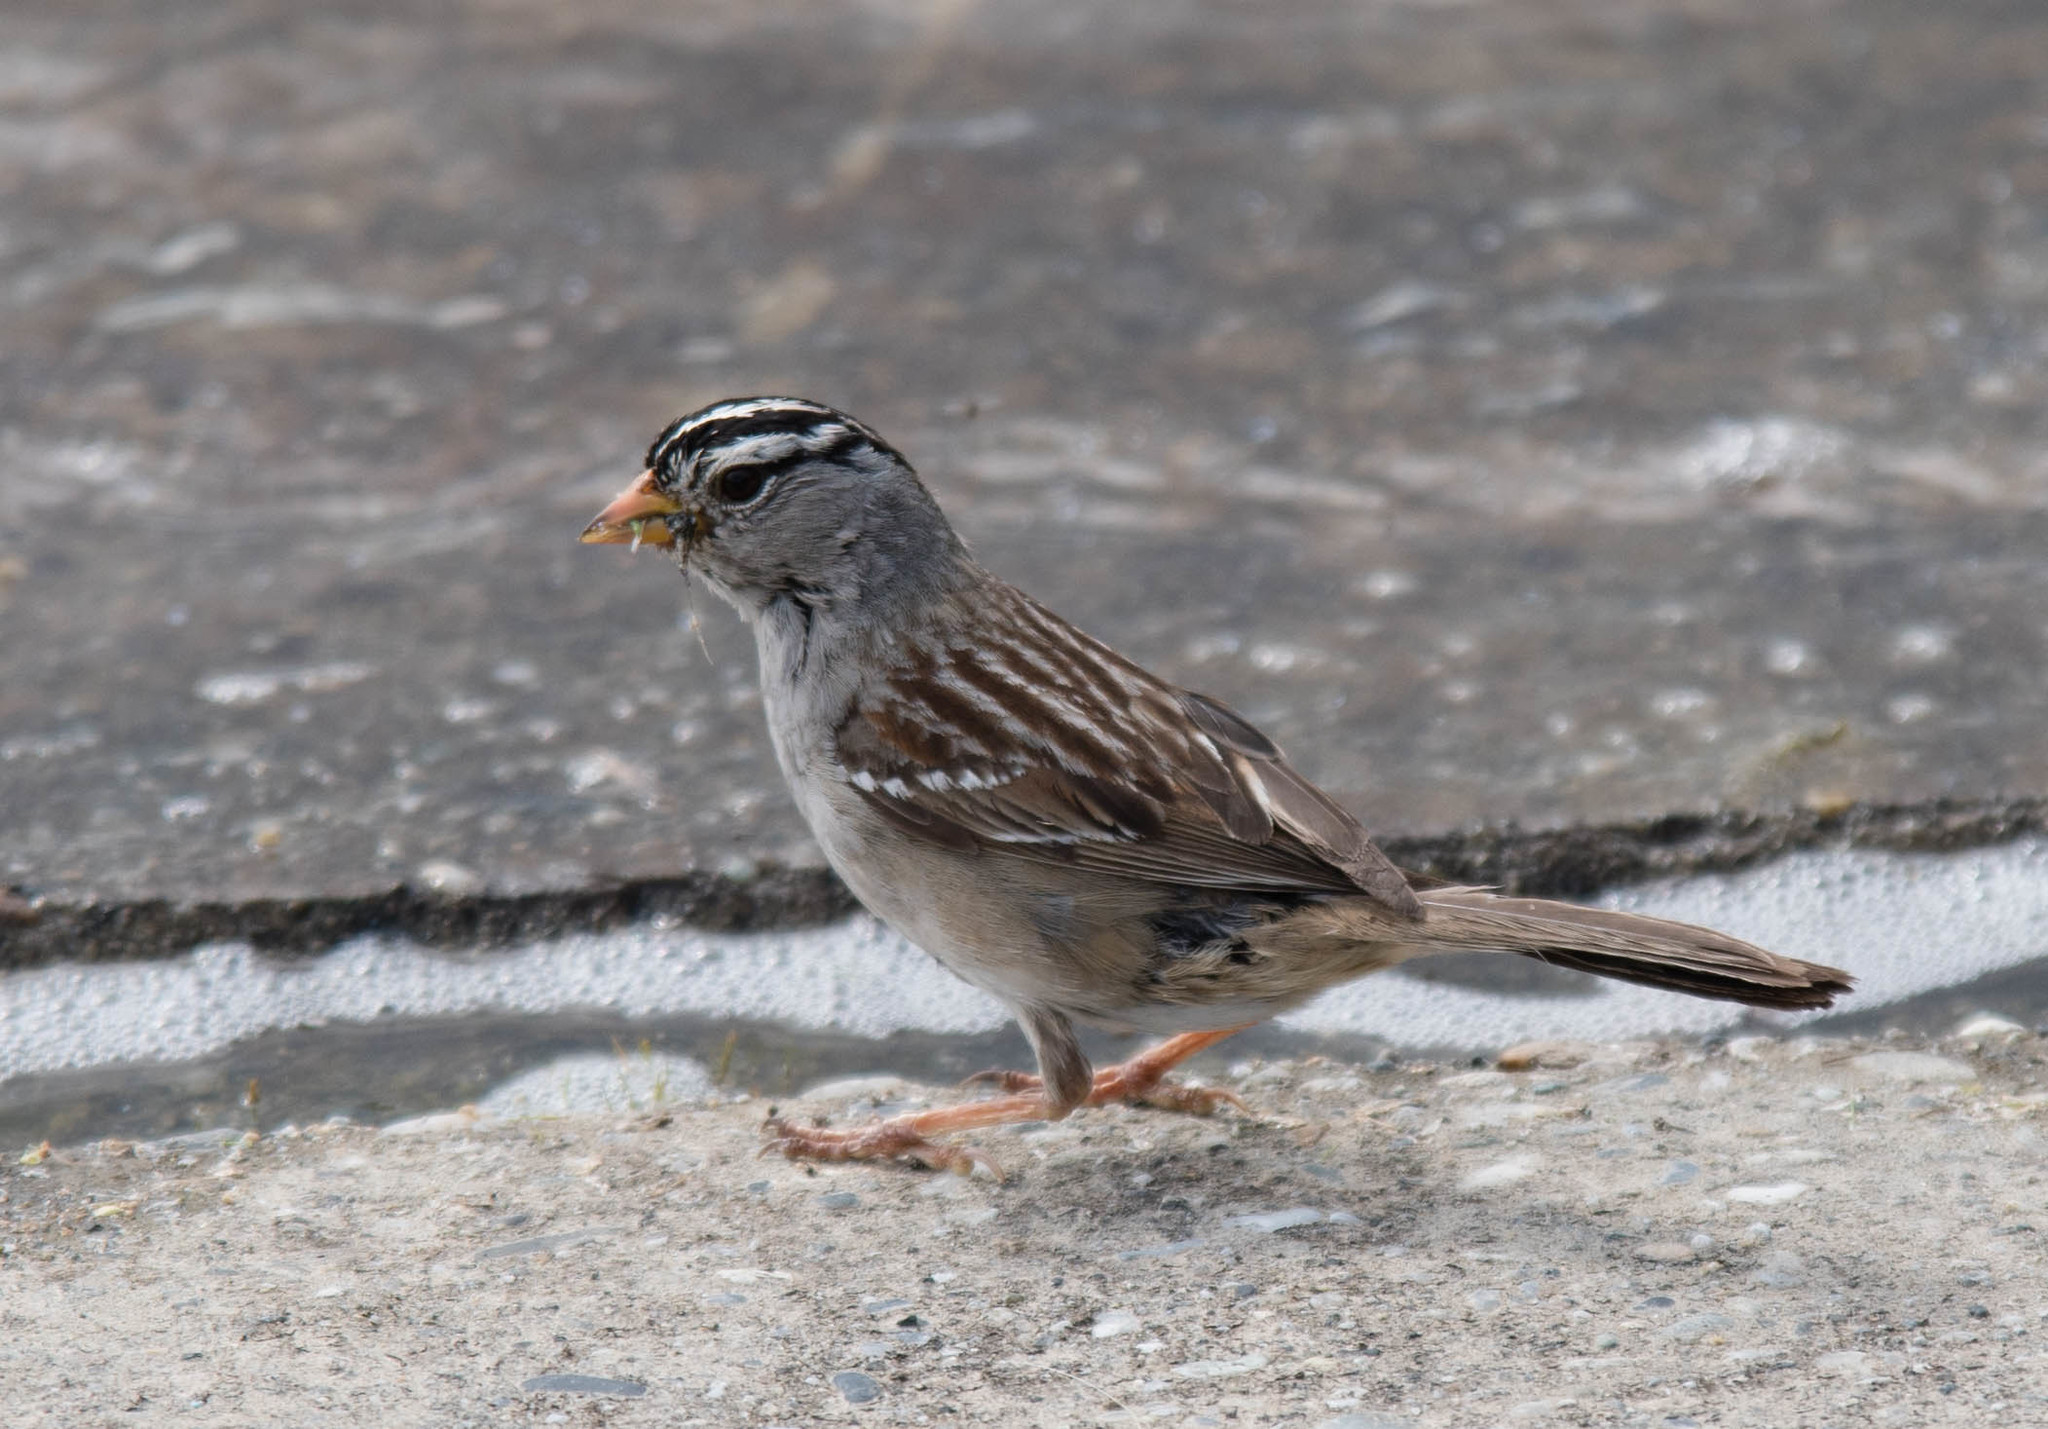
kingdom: Animalia
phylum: Chordata
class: Aves
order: Passeriformes
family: Passerellidae
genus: Zonotrichia
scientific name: Zonotrichia leucophrys
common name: White-crowned sparrow
